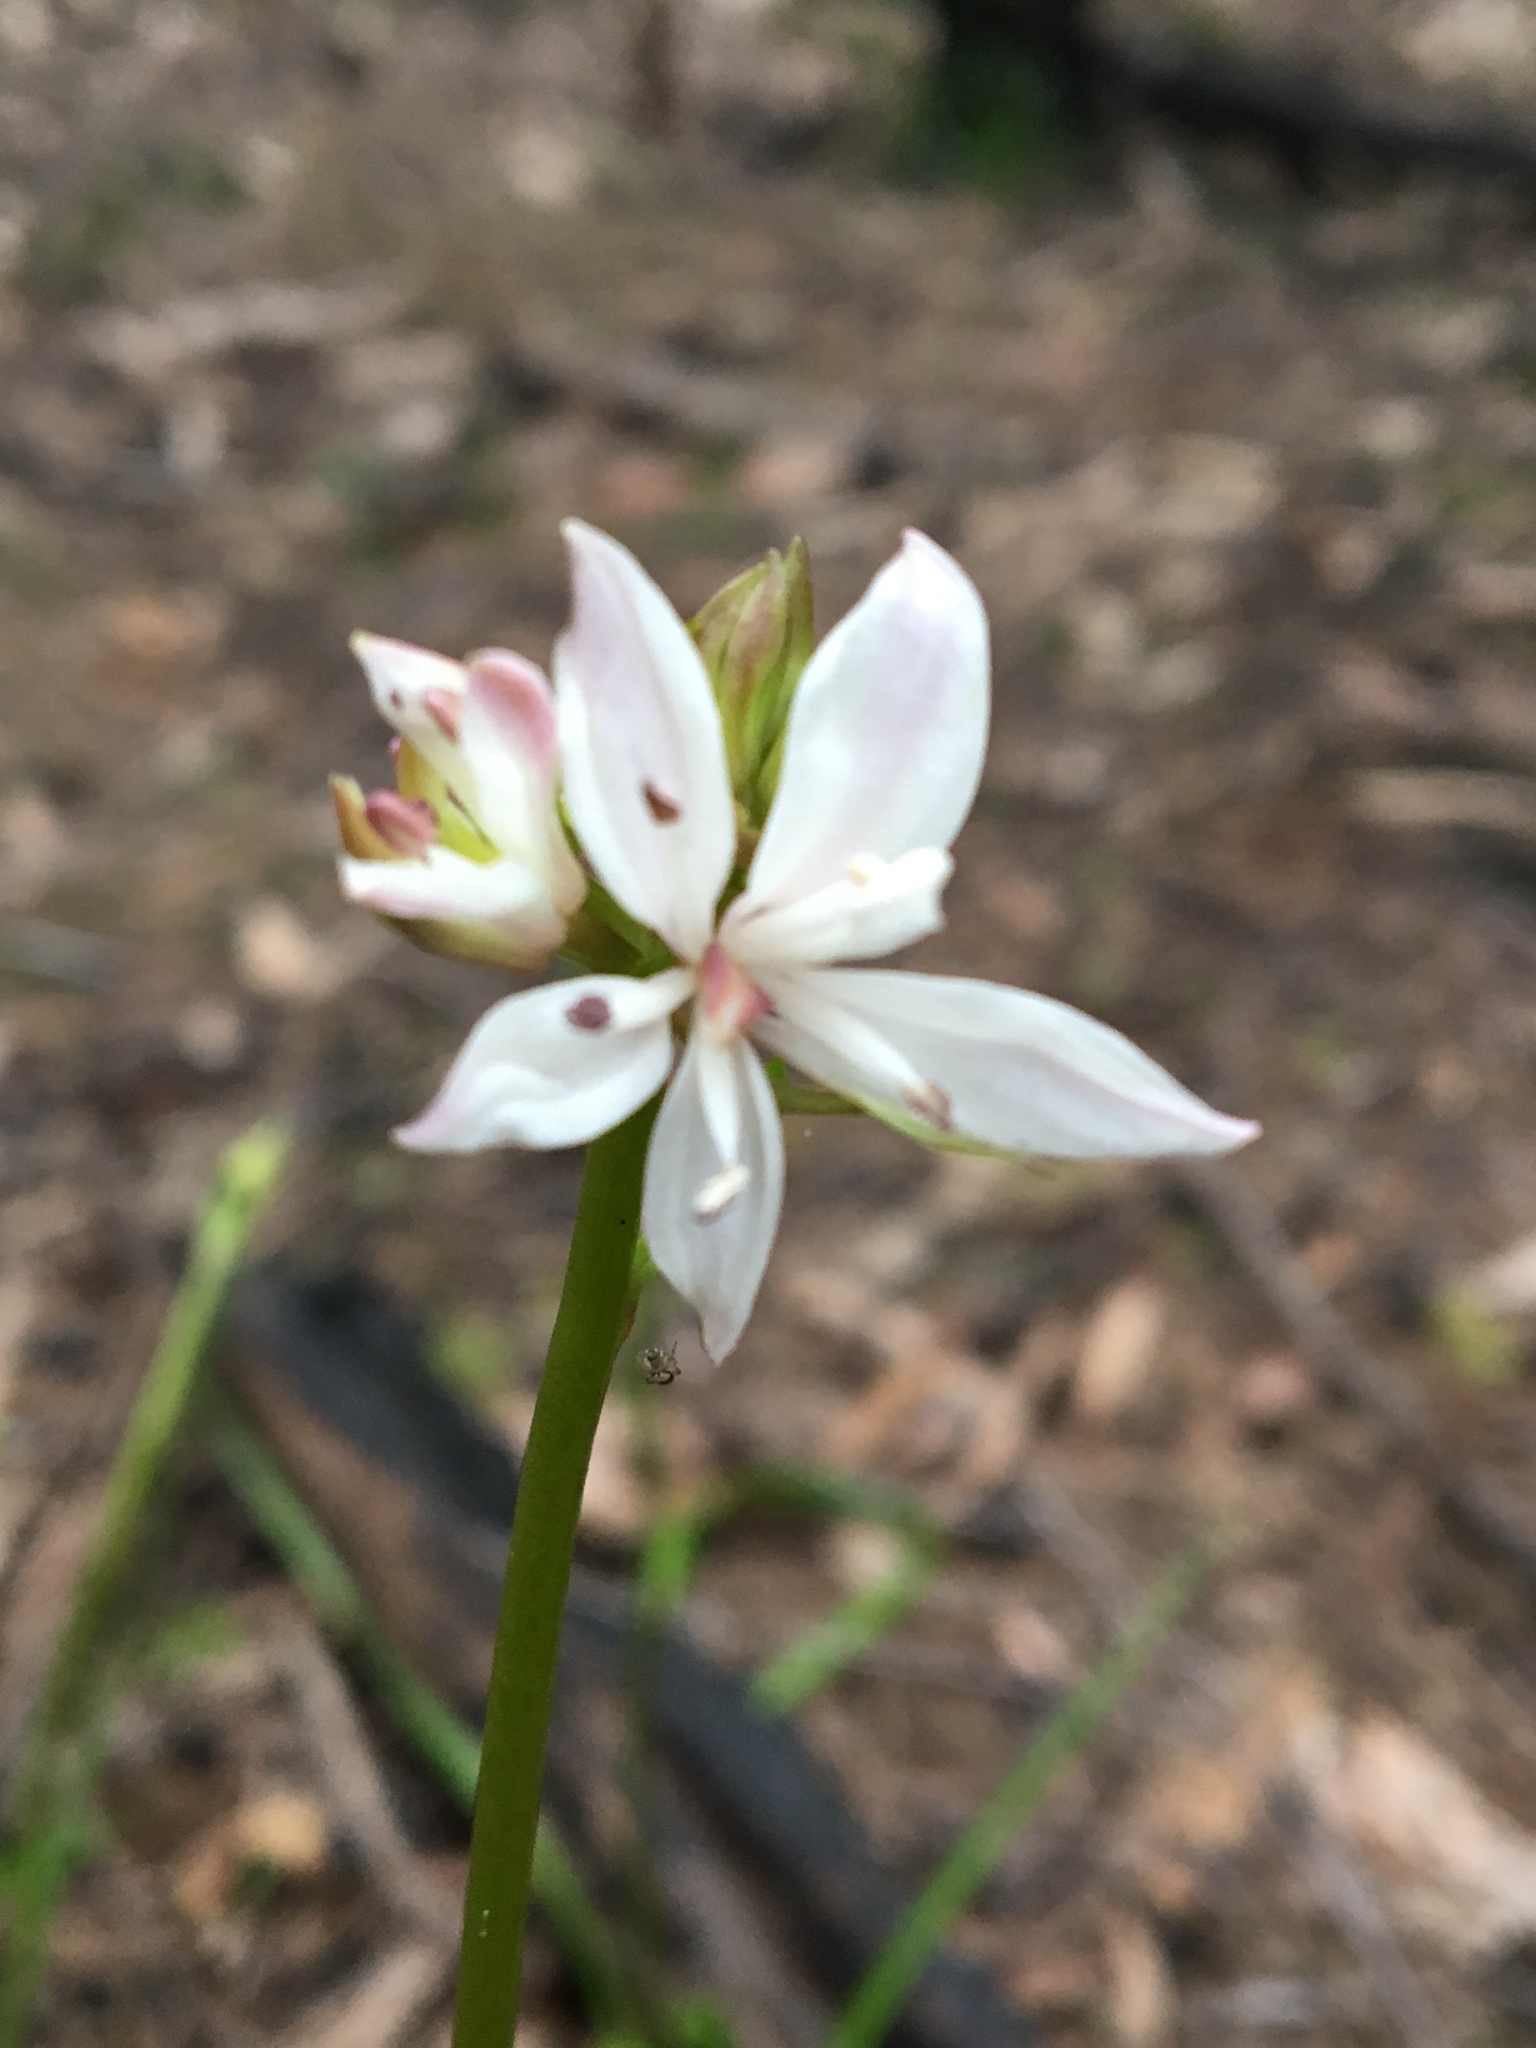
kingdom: Plantae
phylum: Tracheophyta
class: Liliopsida
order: Liliales
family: Colchicaceae
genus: Burchardia
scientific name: Burchardia umbellata
